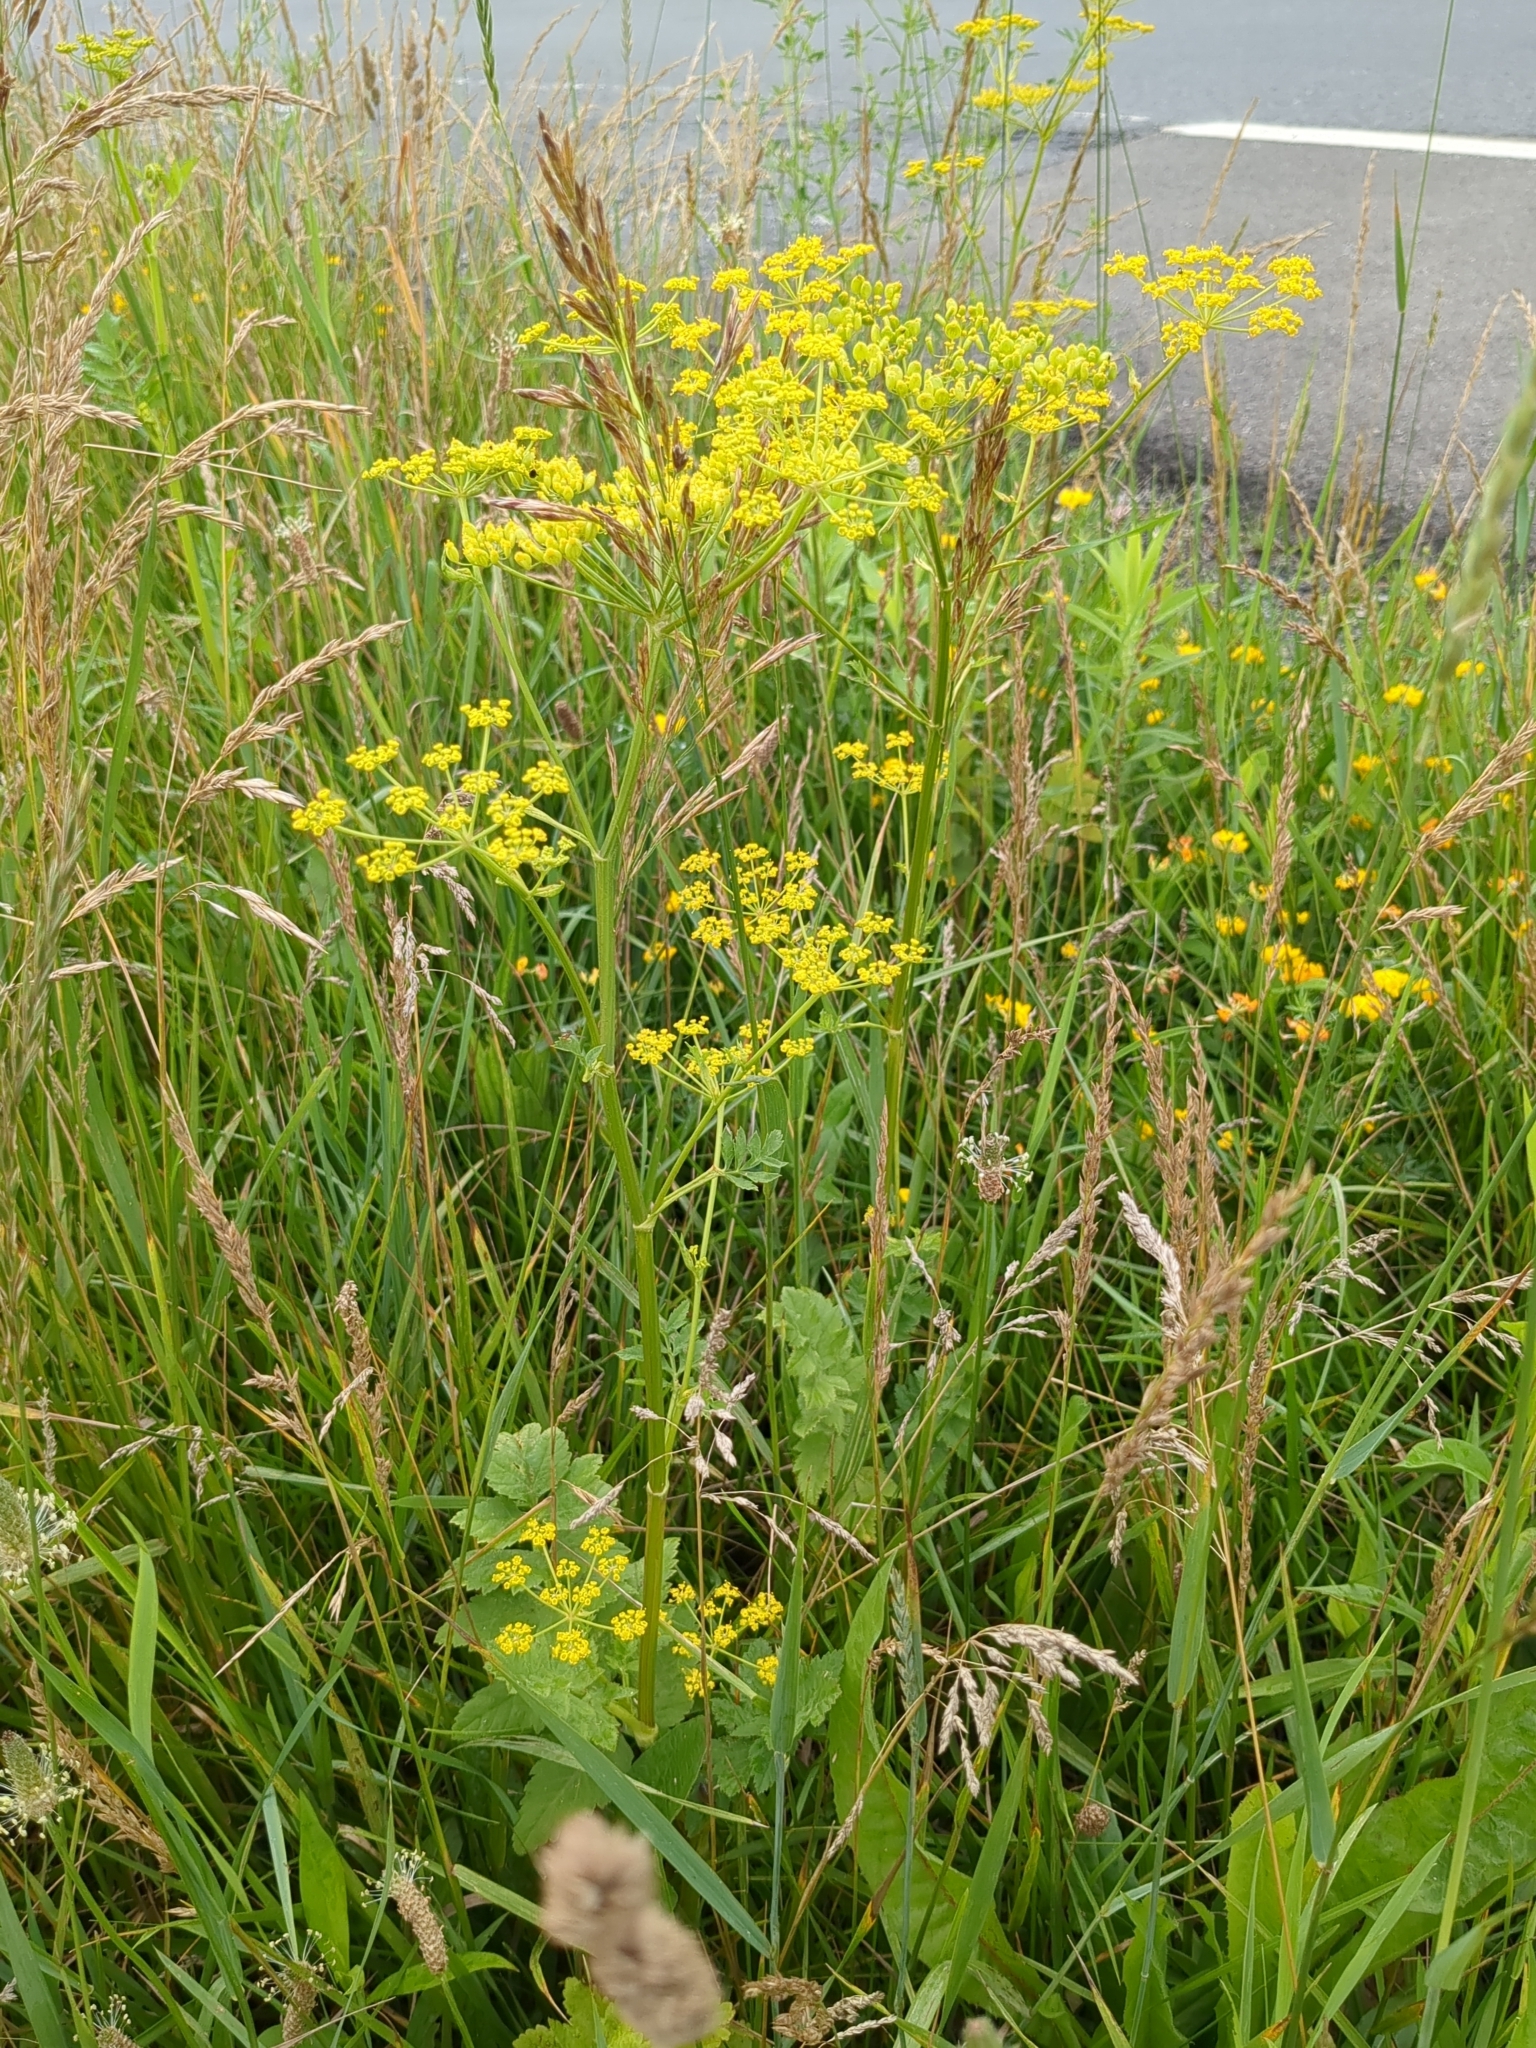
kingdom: Plantae
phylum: Tracheophyta
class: Magnoliopsida
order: Apiales
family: Apiaceae
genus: Pastinaca
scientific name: Pastinaca sativa
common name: Wild parsnip
